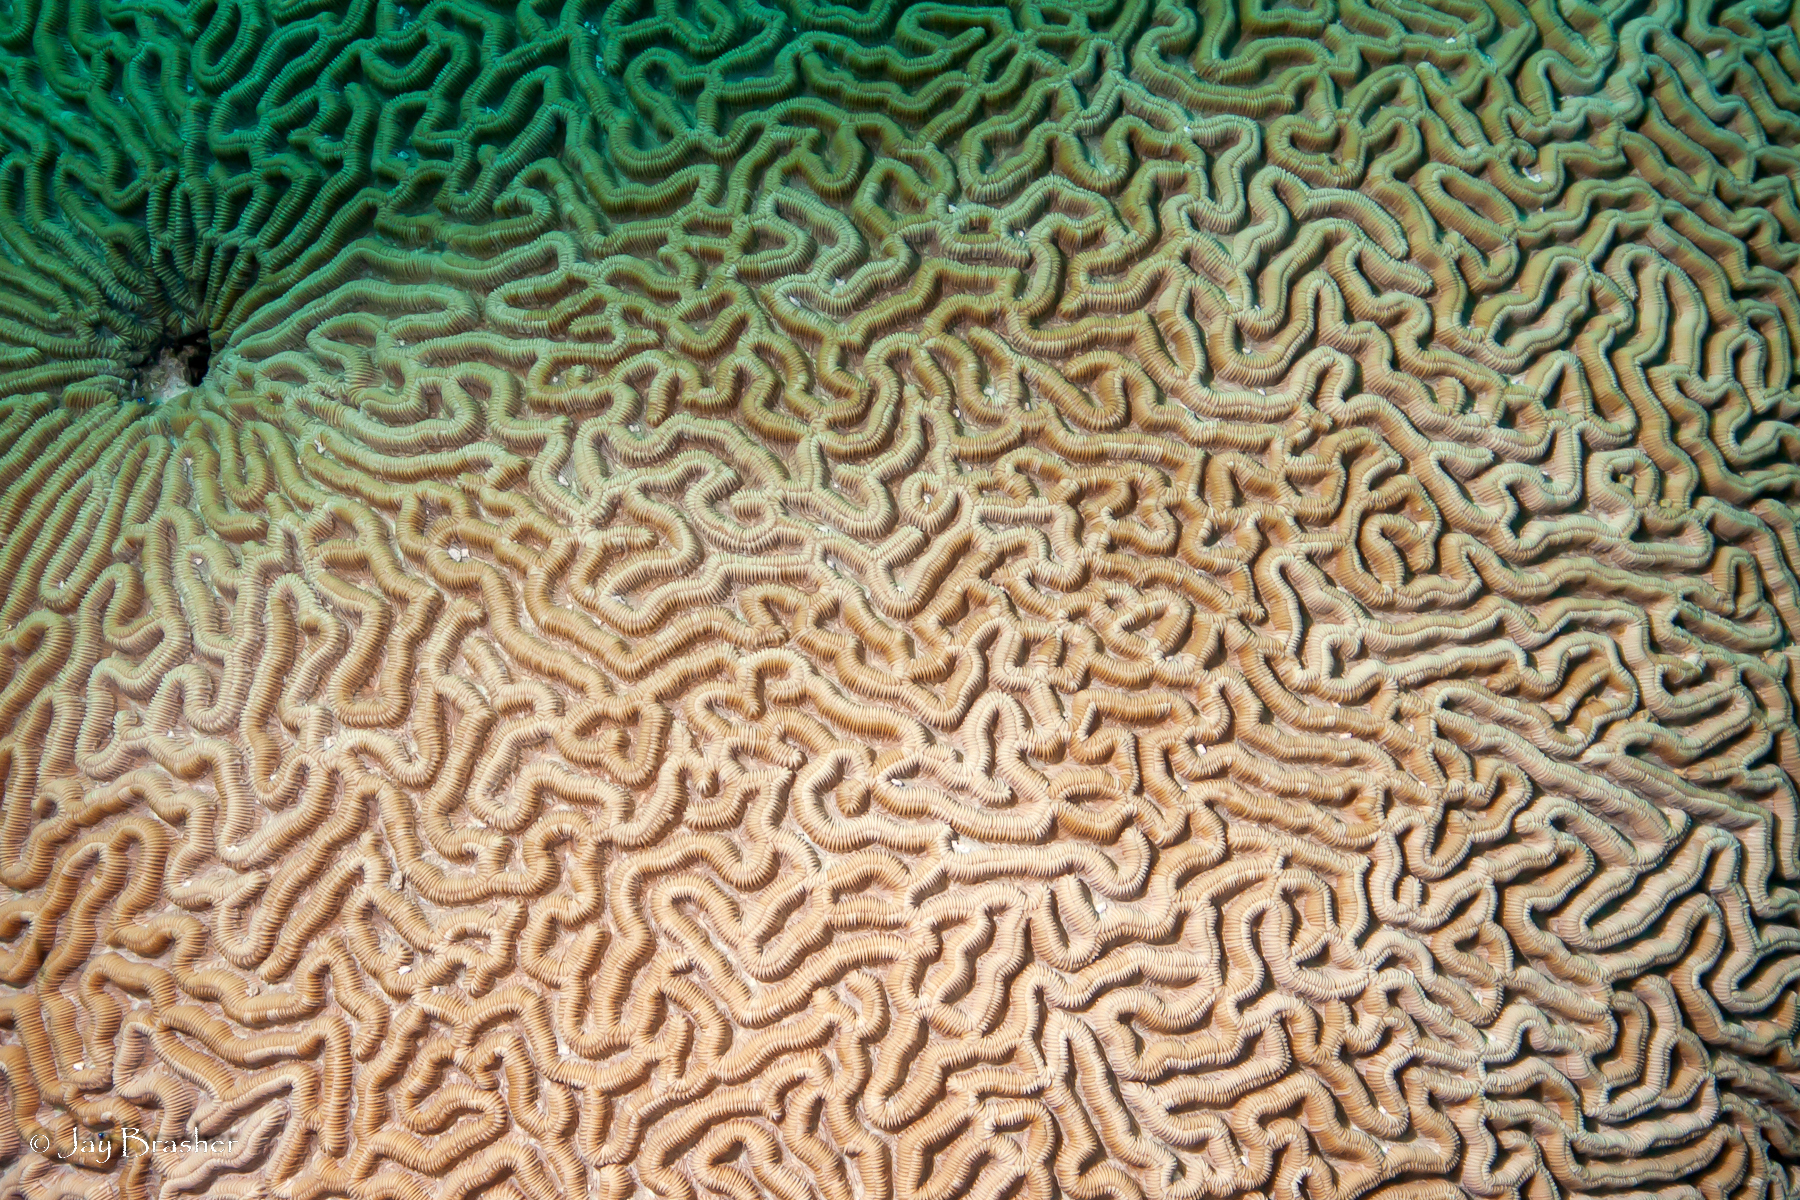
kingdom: Animalia
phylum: Cnidaria
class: Anthozoa
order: Scleractinia
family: Faviidae
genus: Pseudodiploria
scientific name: Pseudodiploria strigosa
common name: Symmetrical brain coral
